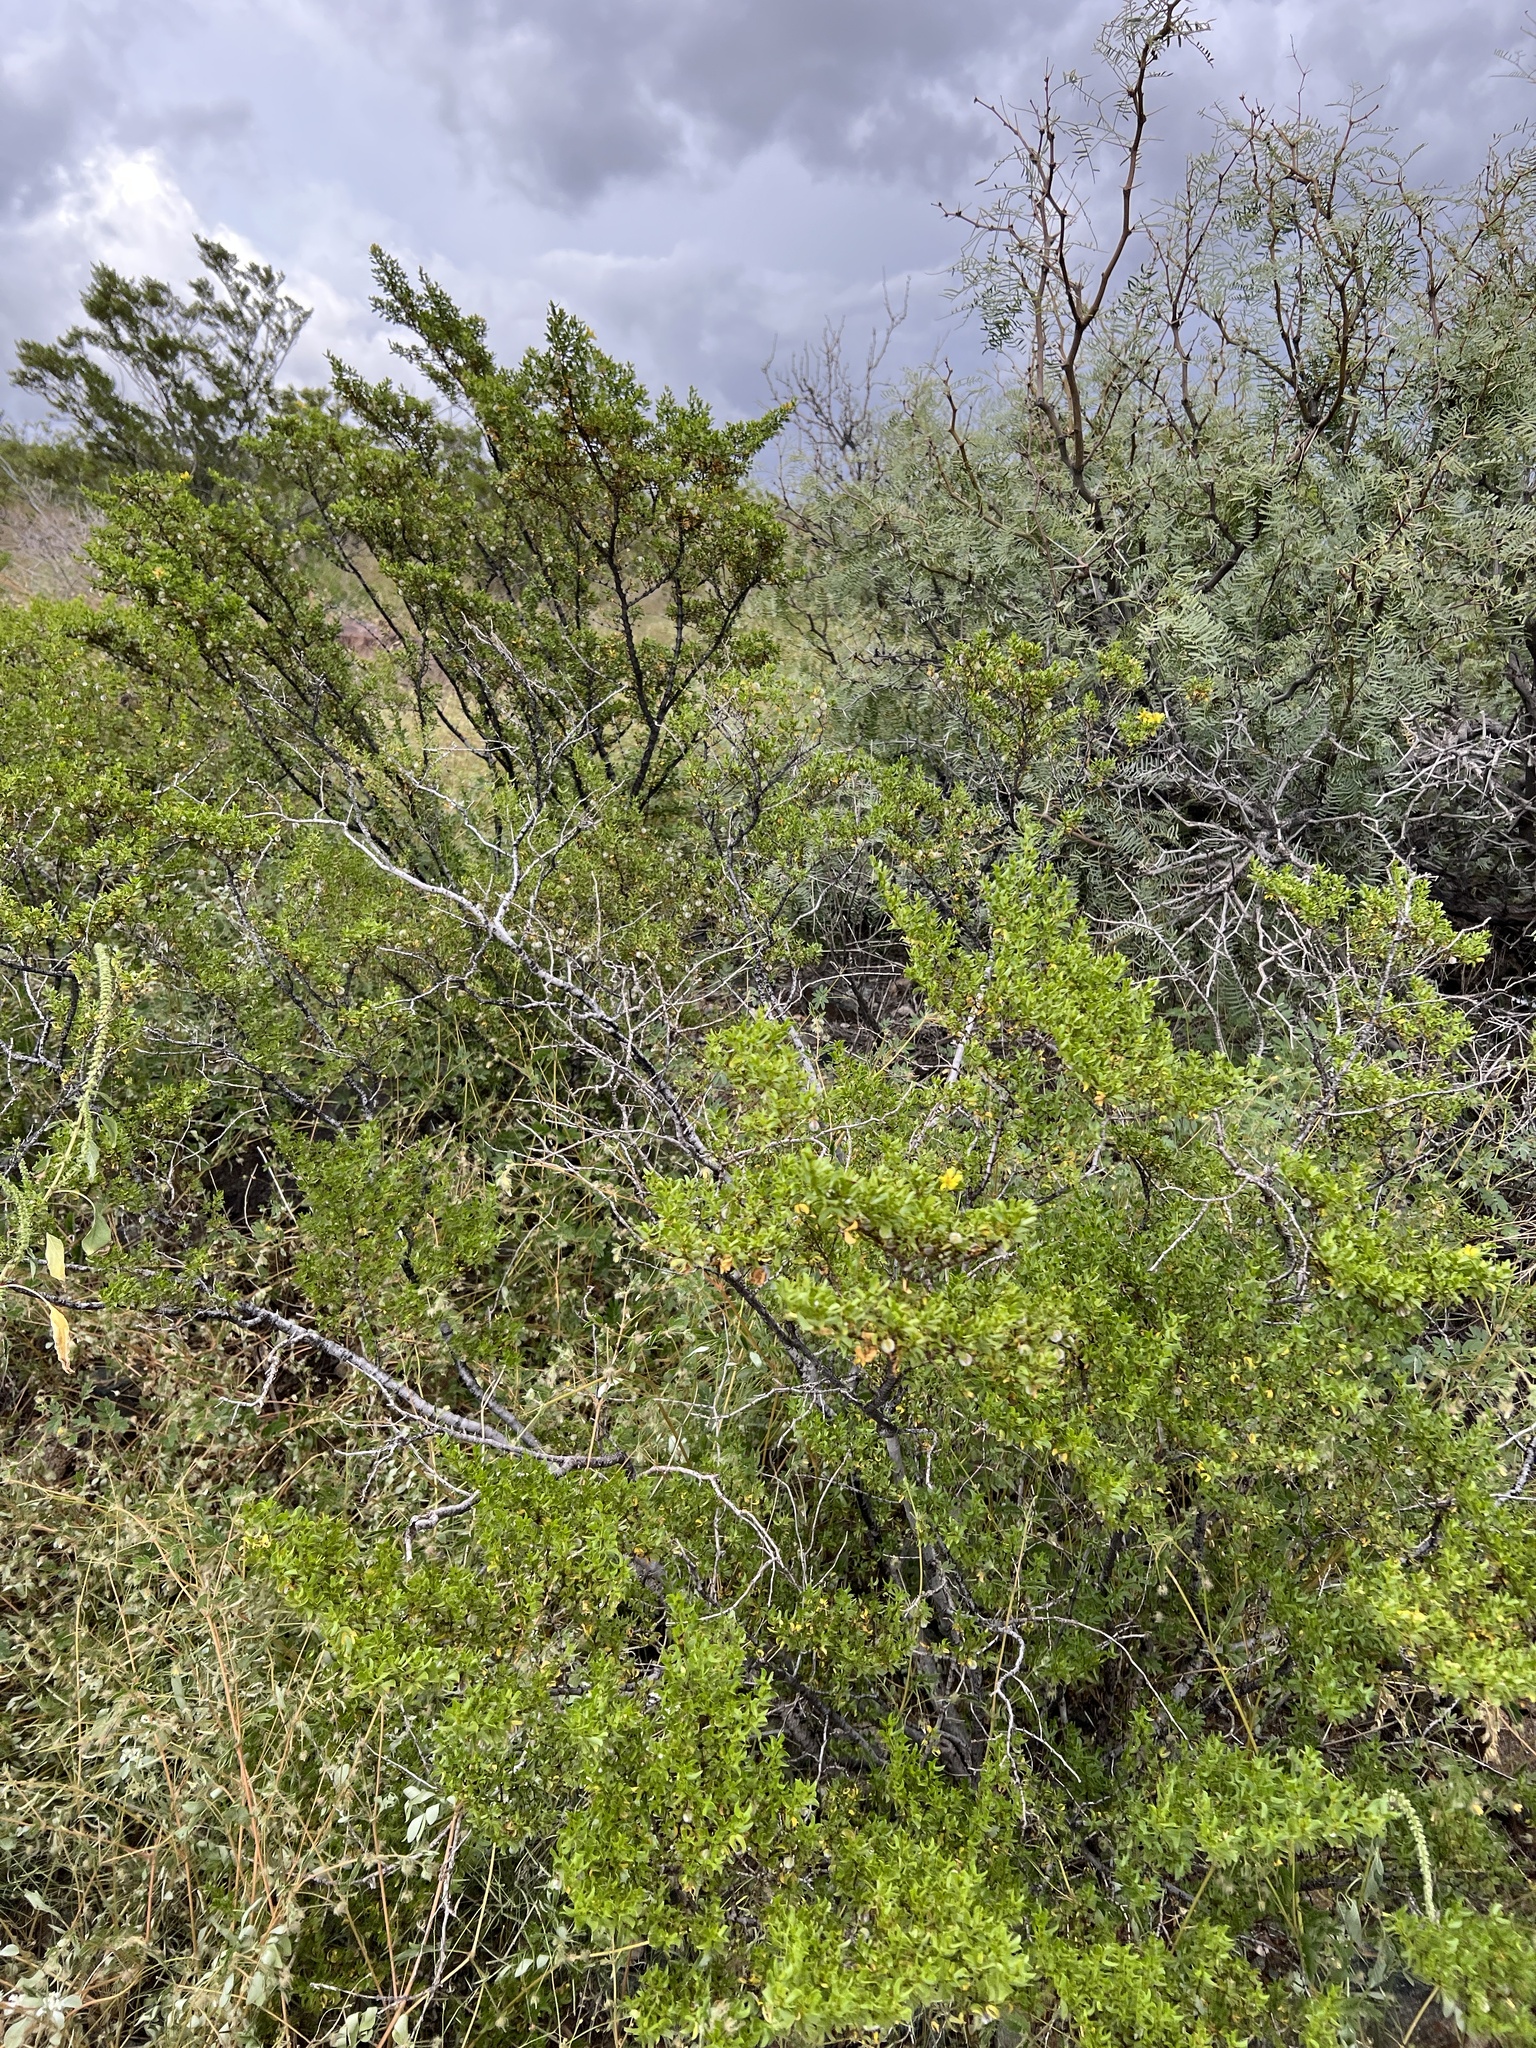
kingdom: Plantae
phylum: Tracheophyta
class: Magnoliopsida
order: Zygophyllales
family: Zygophyllaceae
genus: Larrea
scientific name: Larrea tridentata
